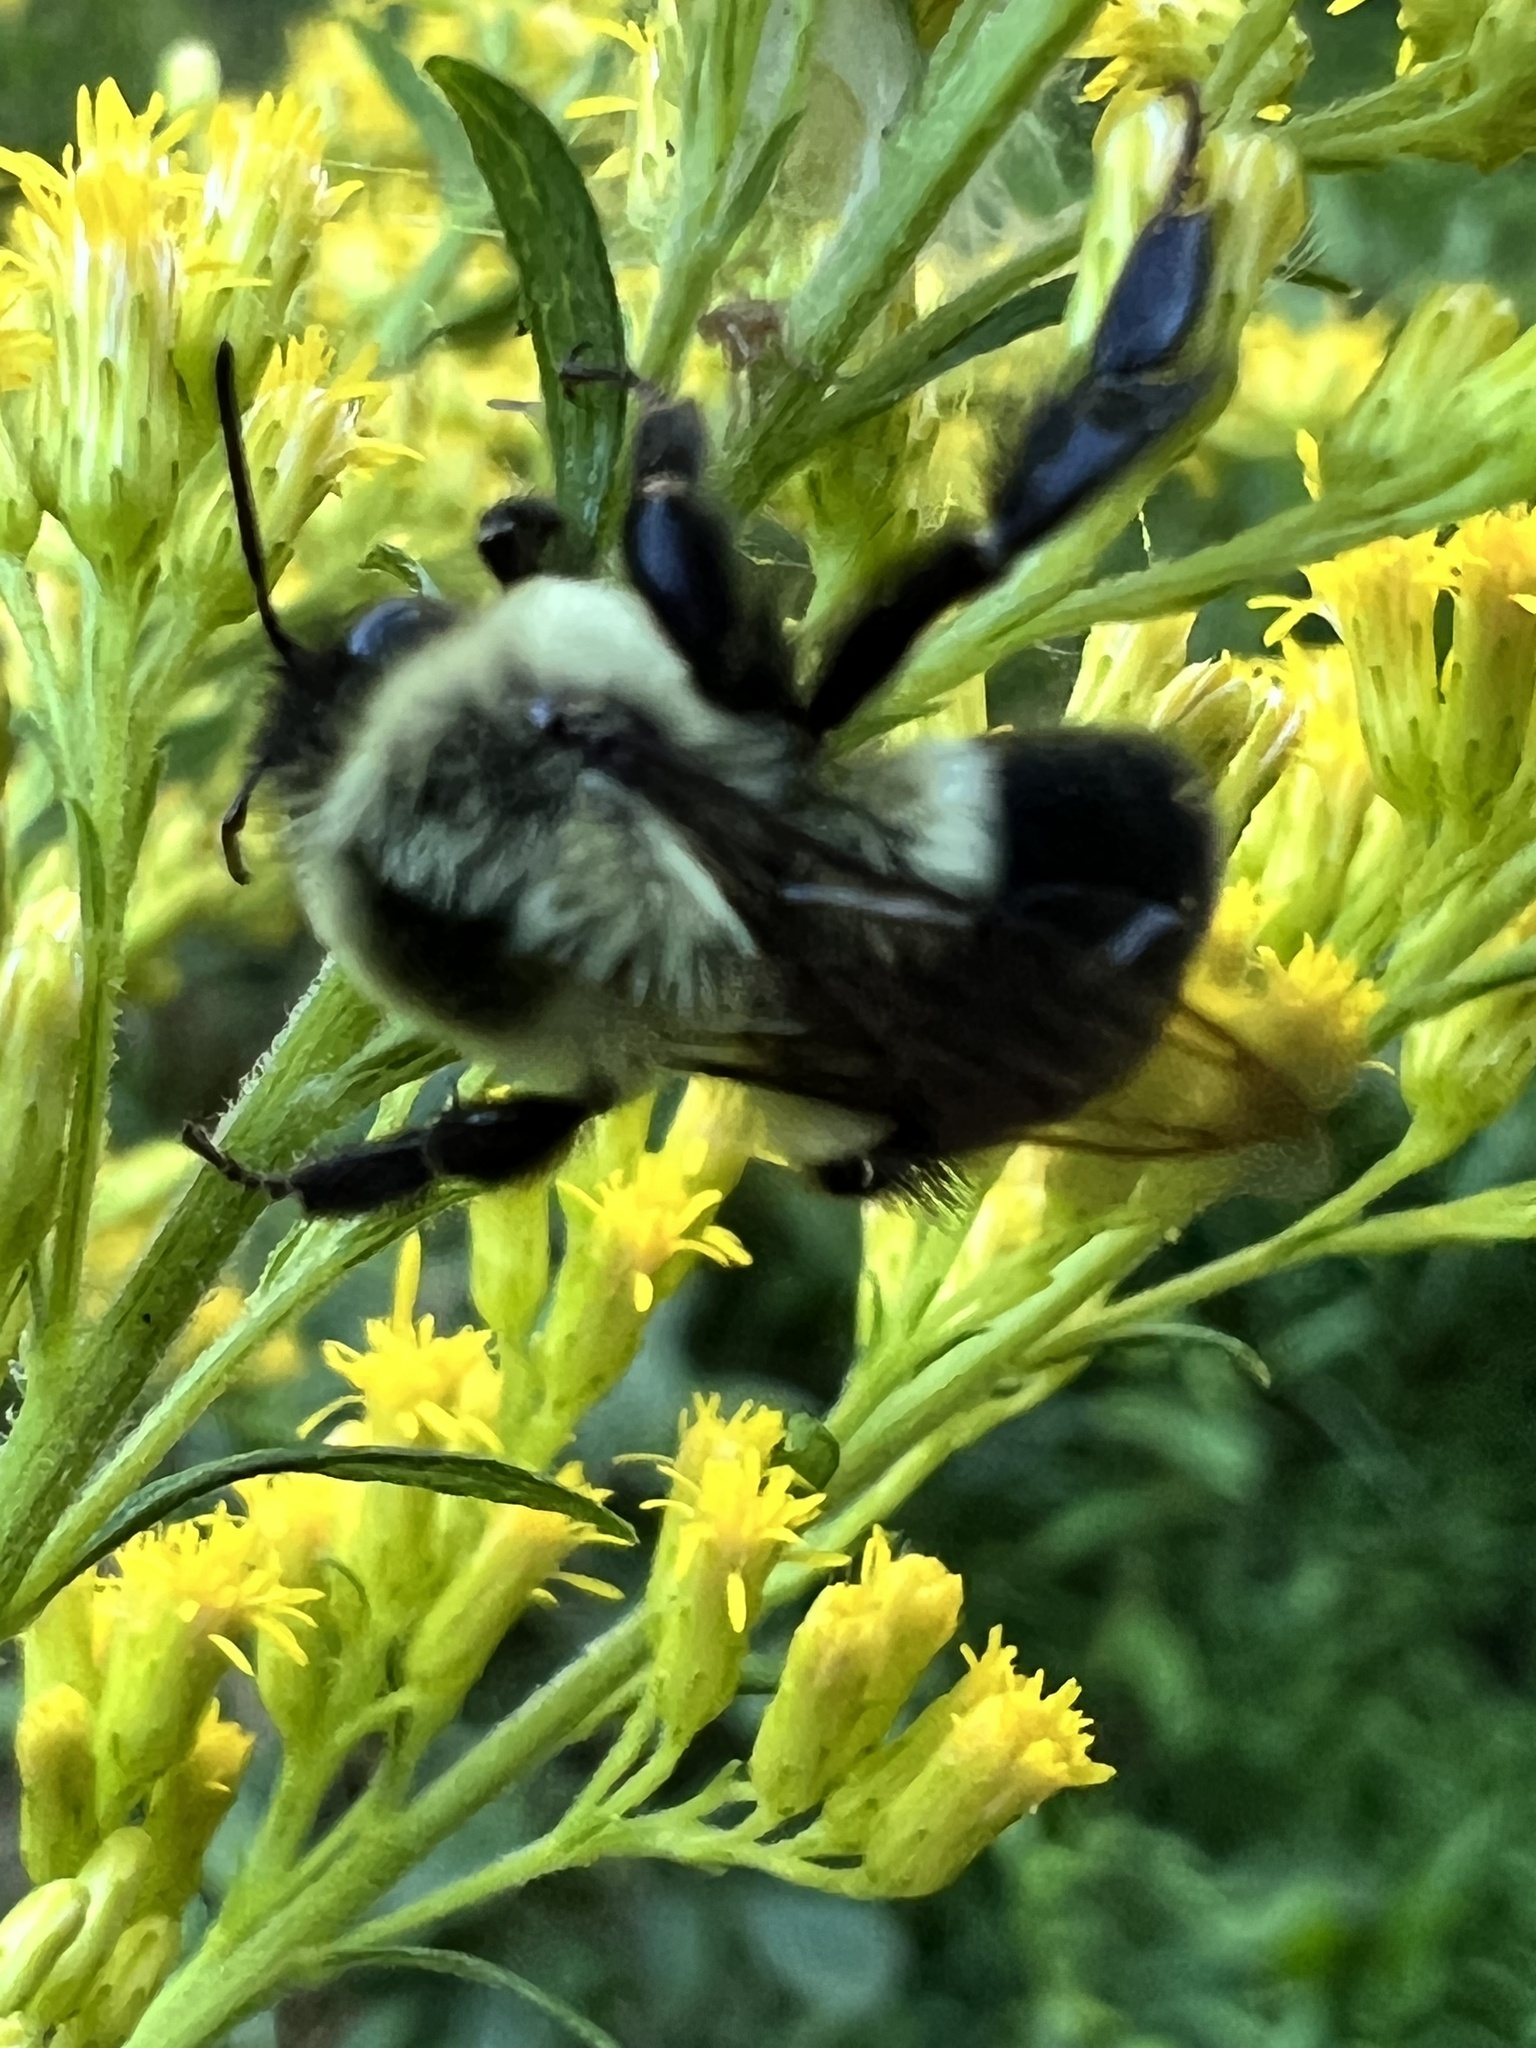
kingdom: Animalia
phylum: Arthropoda
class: Insecta
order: Hymenoptera
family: Apidae
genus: Bombus
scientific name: Bombus impatiens
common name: Common eastern bumble bee
